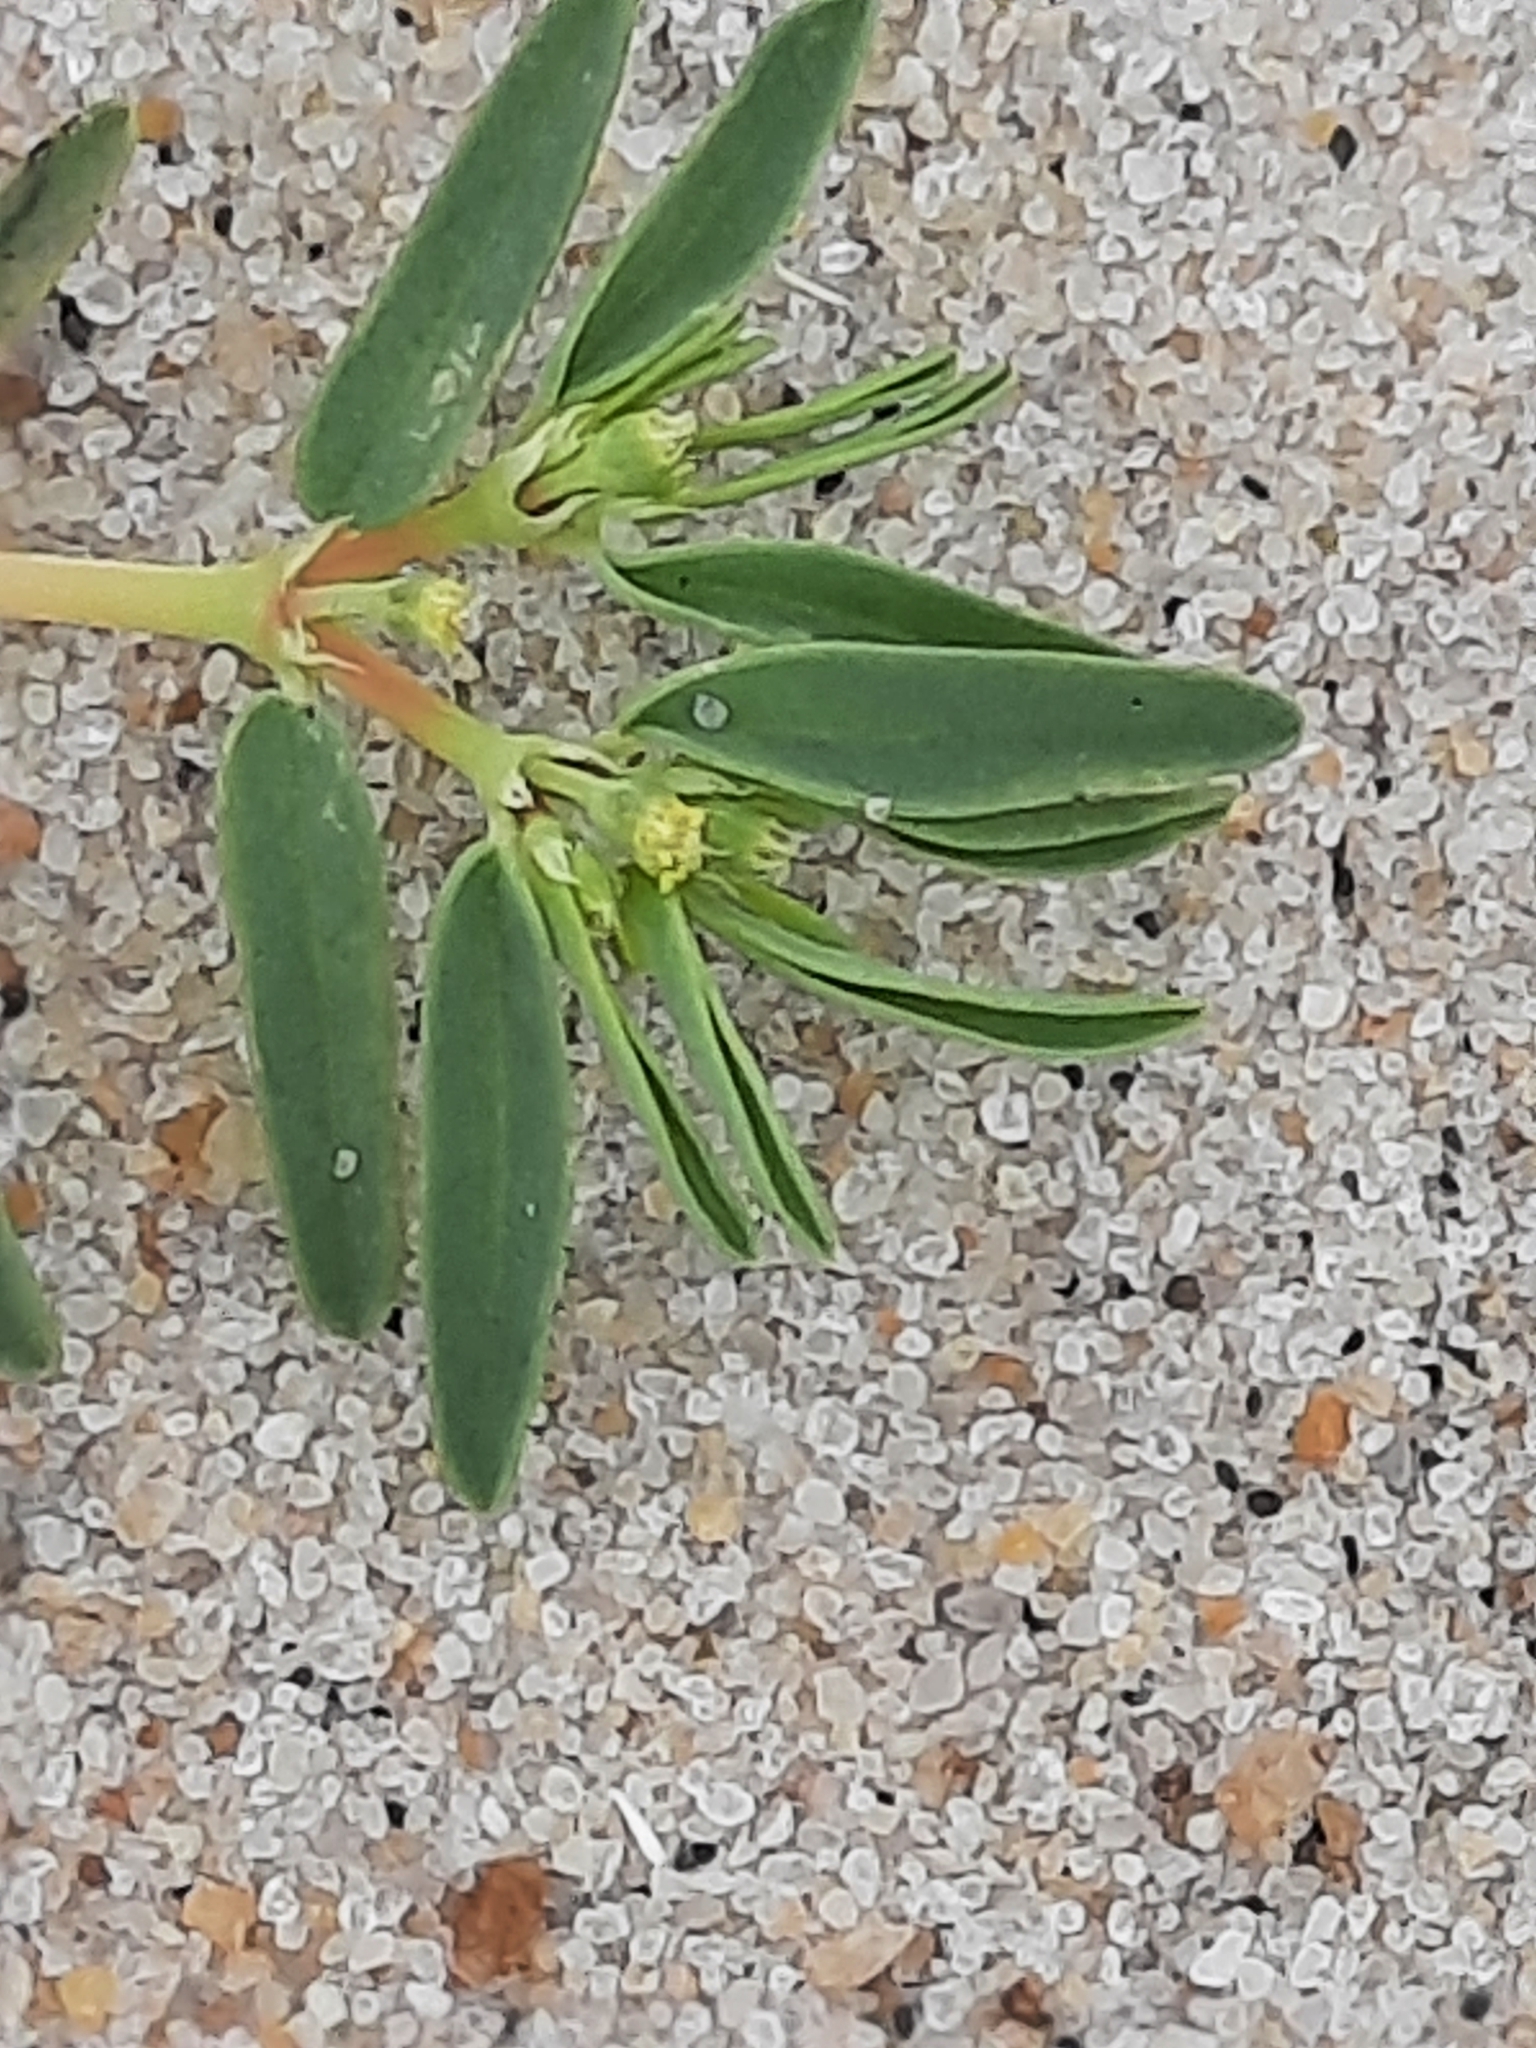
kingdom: Plantae
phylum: Tracheophyta
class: Magnoliopsida
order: Malpighiales
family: Euphorbiaceae
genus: Euphorbia
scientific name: Euphorbia polygonifolia
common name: Knotweed spurge
